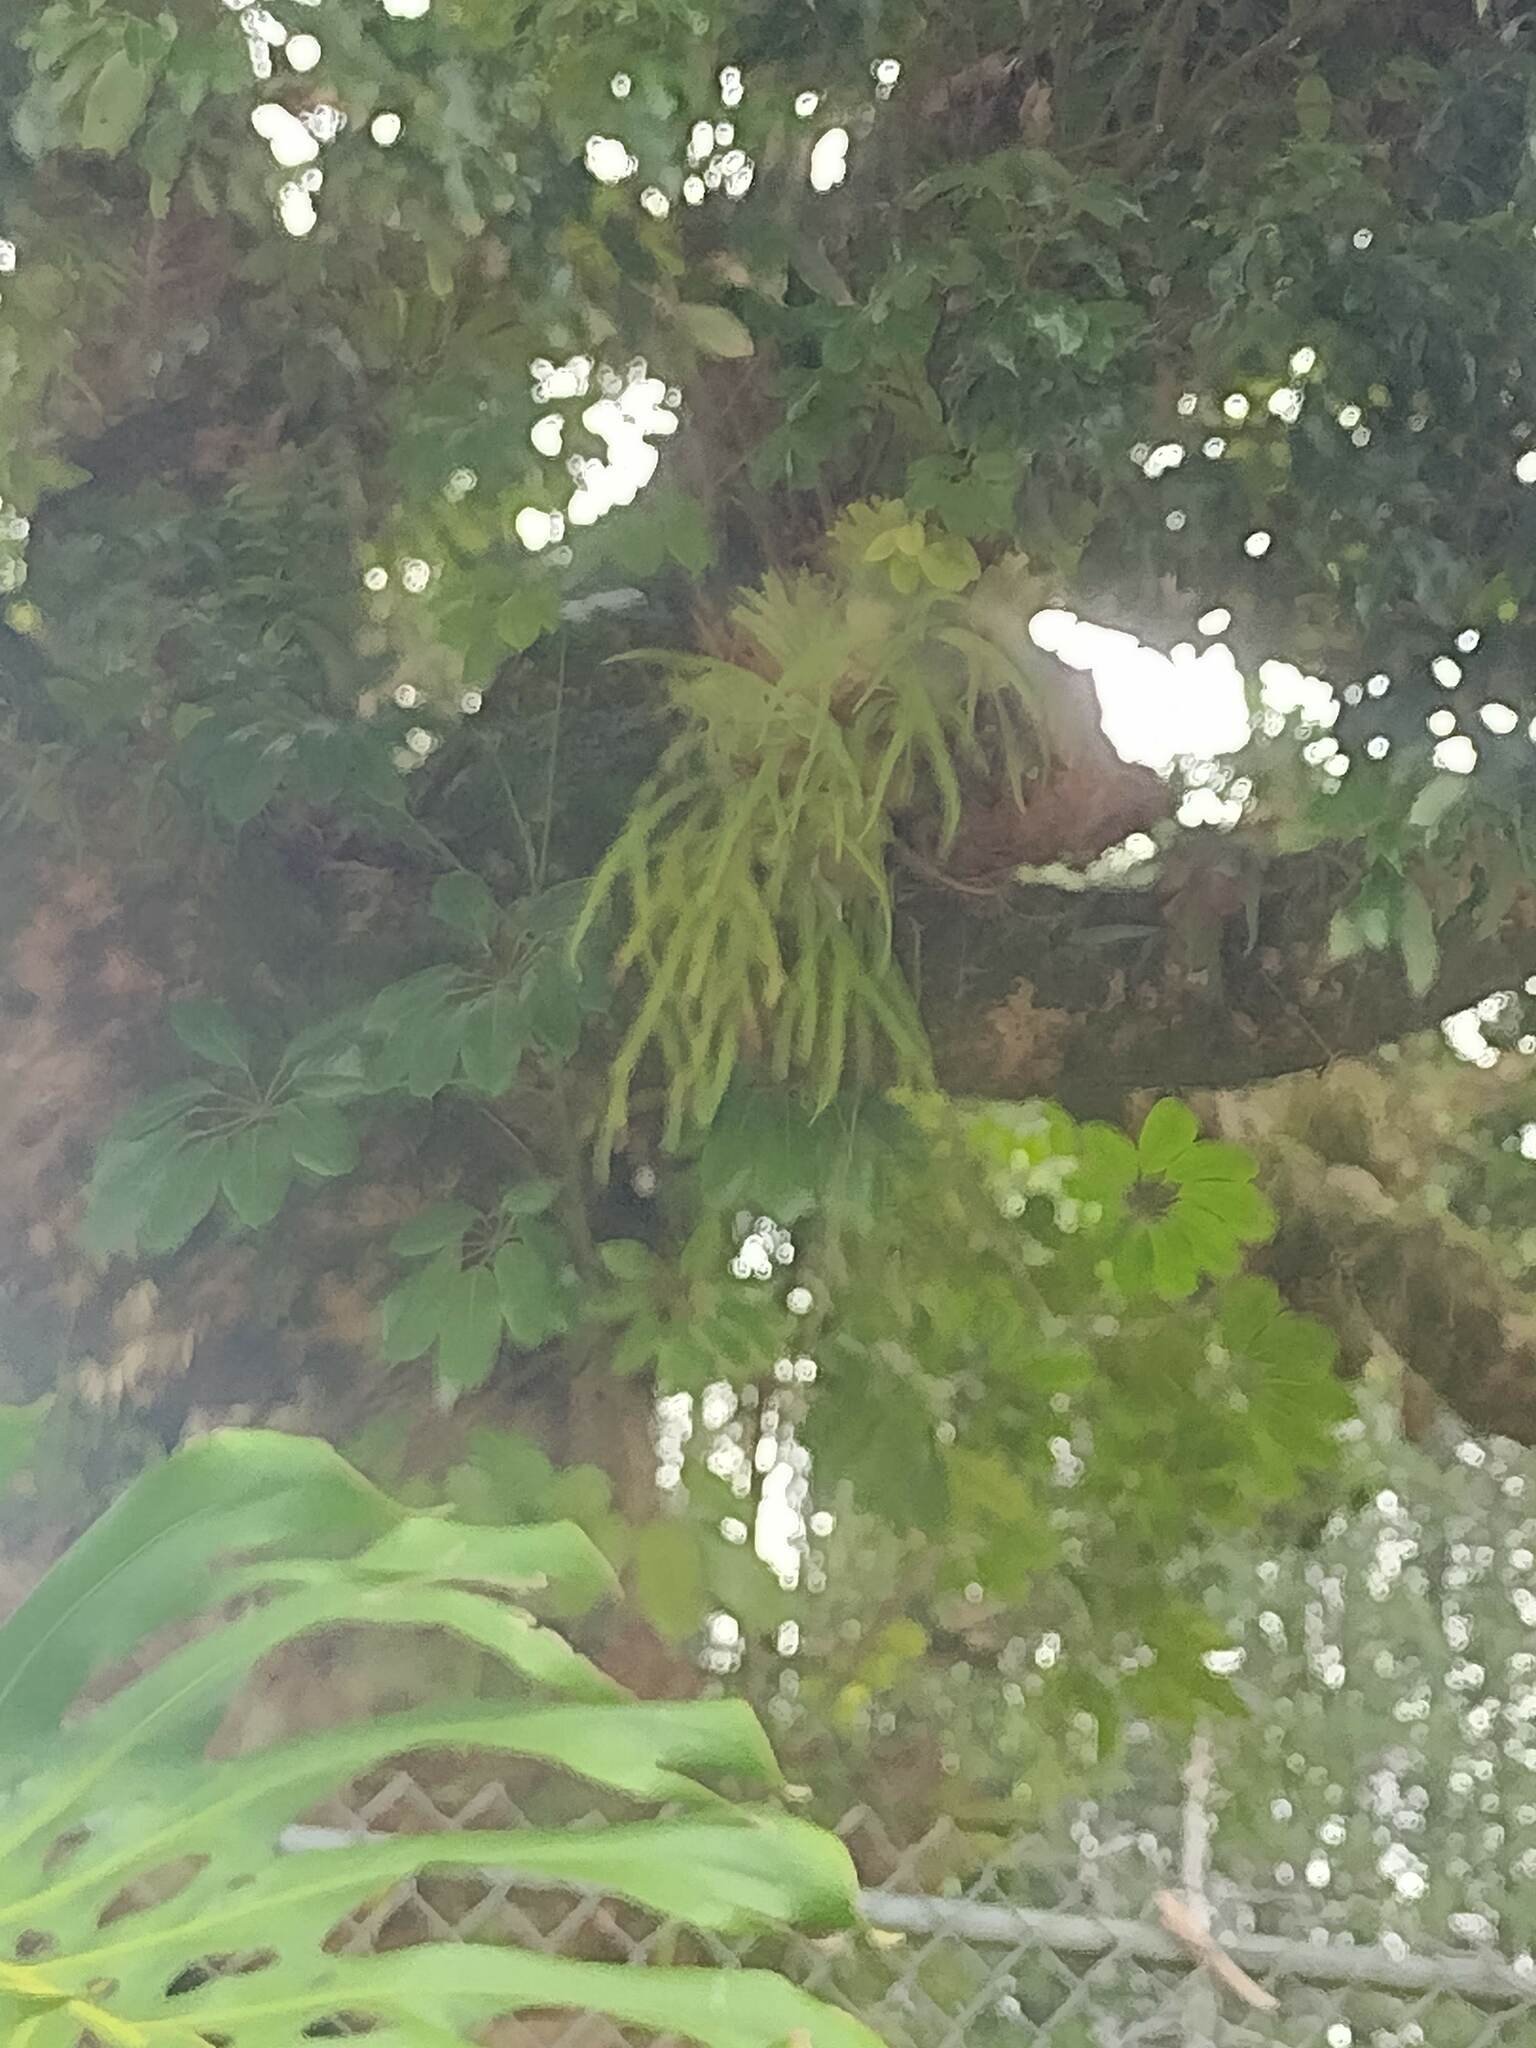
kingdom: Plantae
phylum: Tracheophyta
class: Polypodiopsida
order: Polypodiales
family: Polypodiaceae
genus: Platycerium
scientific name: Platycerium bifurcatum
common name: Elkhorn fern
